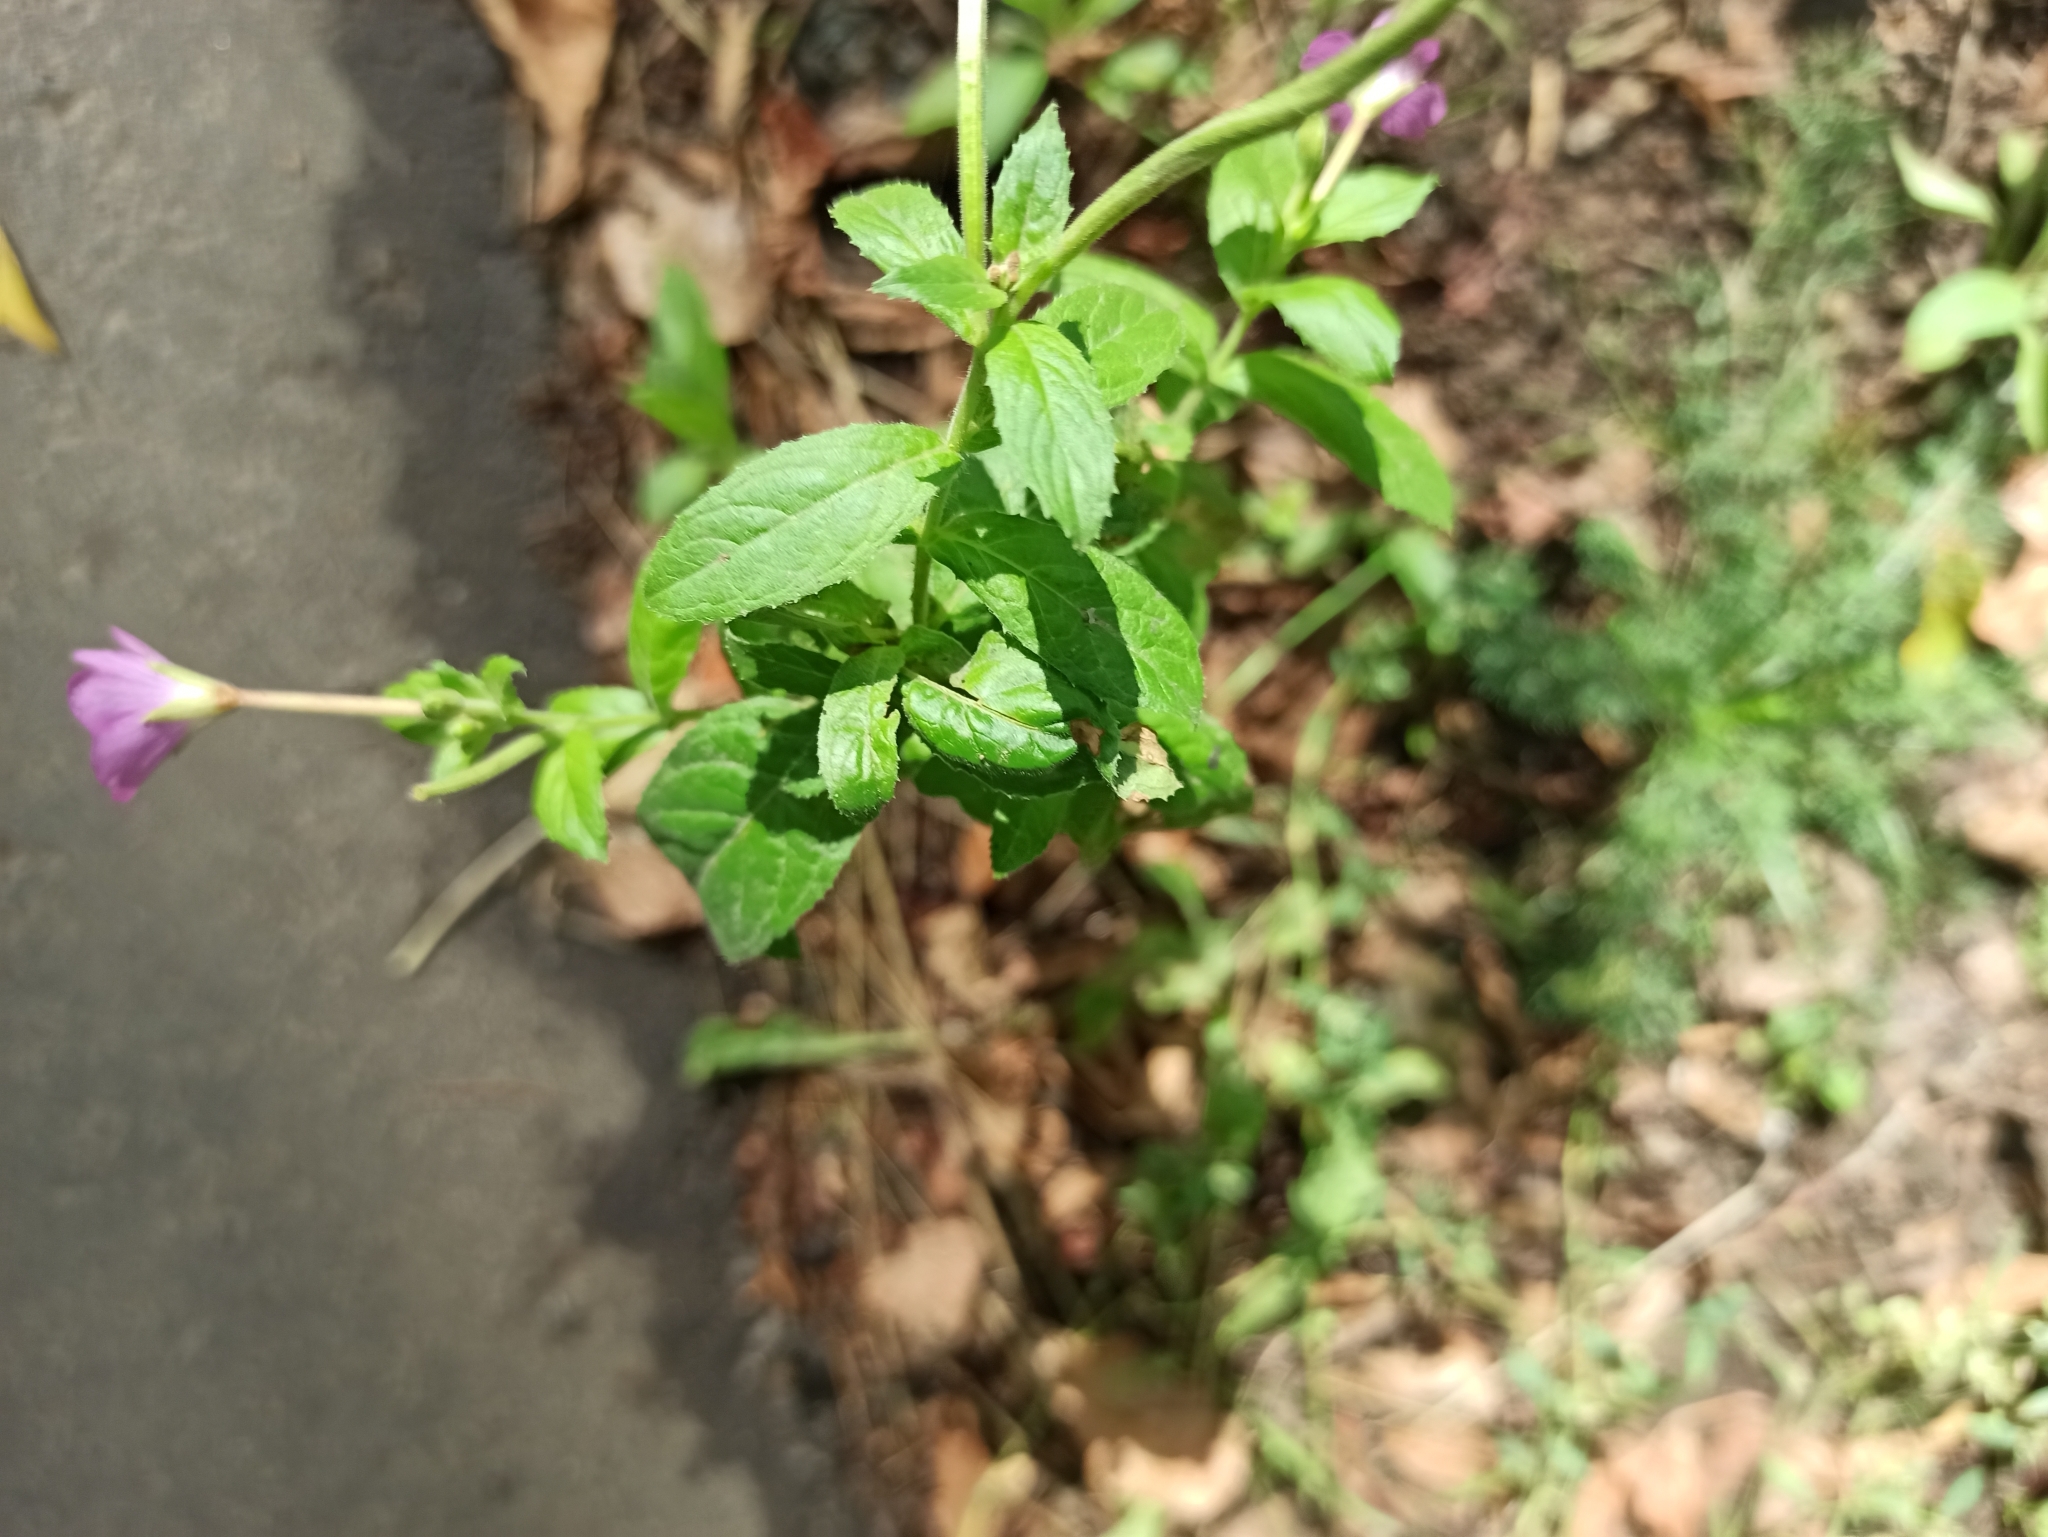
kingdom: Plantae
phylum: Tracheophyta
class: Magnoliopsida
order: Myrtales
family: Onagraceae
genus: Epilobium
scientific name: Epilobium hirsutum
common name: Great willowherb
